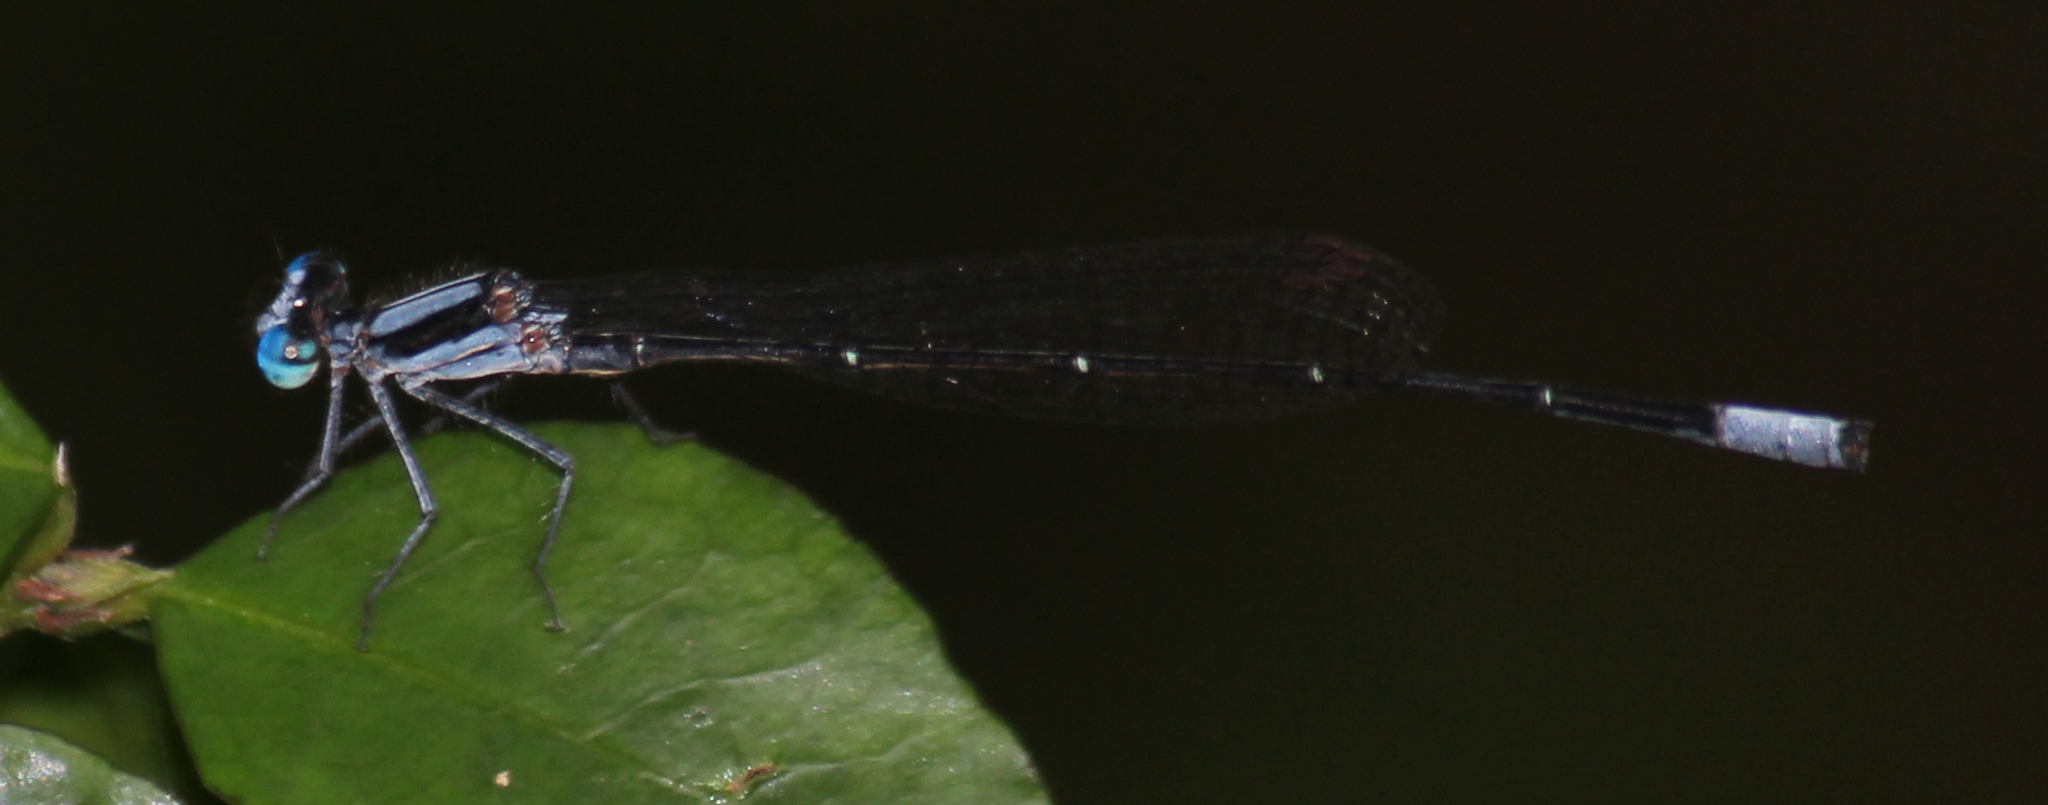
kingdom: Animalia
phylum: Arthropoda
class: Insecta
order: Odonata
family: Platycnemididae
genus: Elattoneura
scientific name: Elattoneura glauca
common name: Common threadtail
